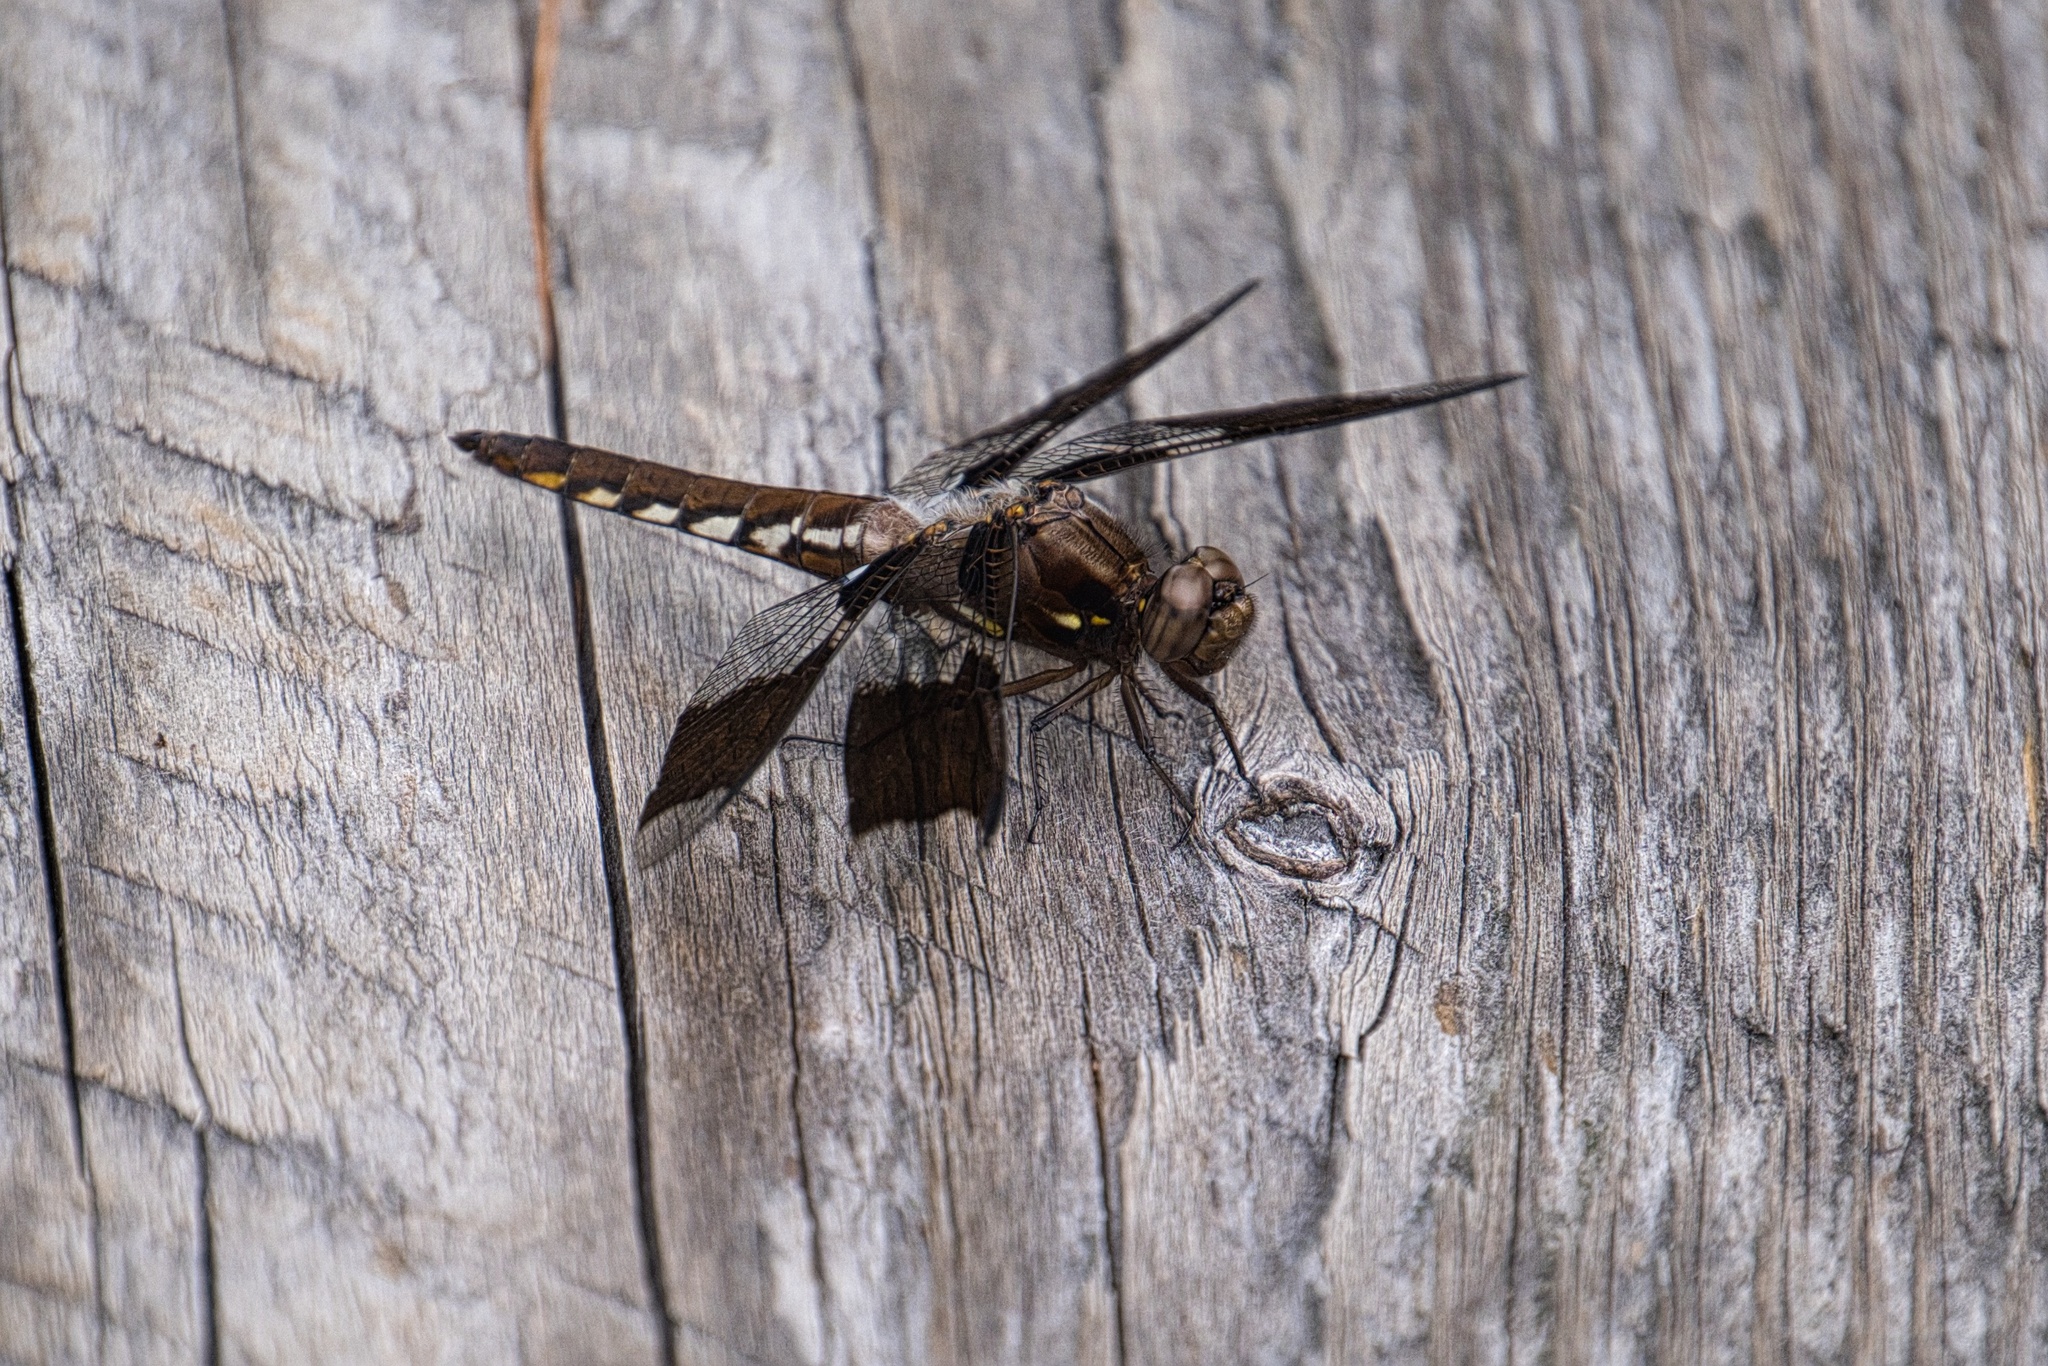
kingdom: Animalia
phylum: Arthropoda
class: Insecta
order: Odonata
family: Libellulidae
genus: Plathemis
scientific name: Plathemis lydia
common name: Common whitetail
